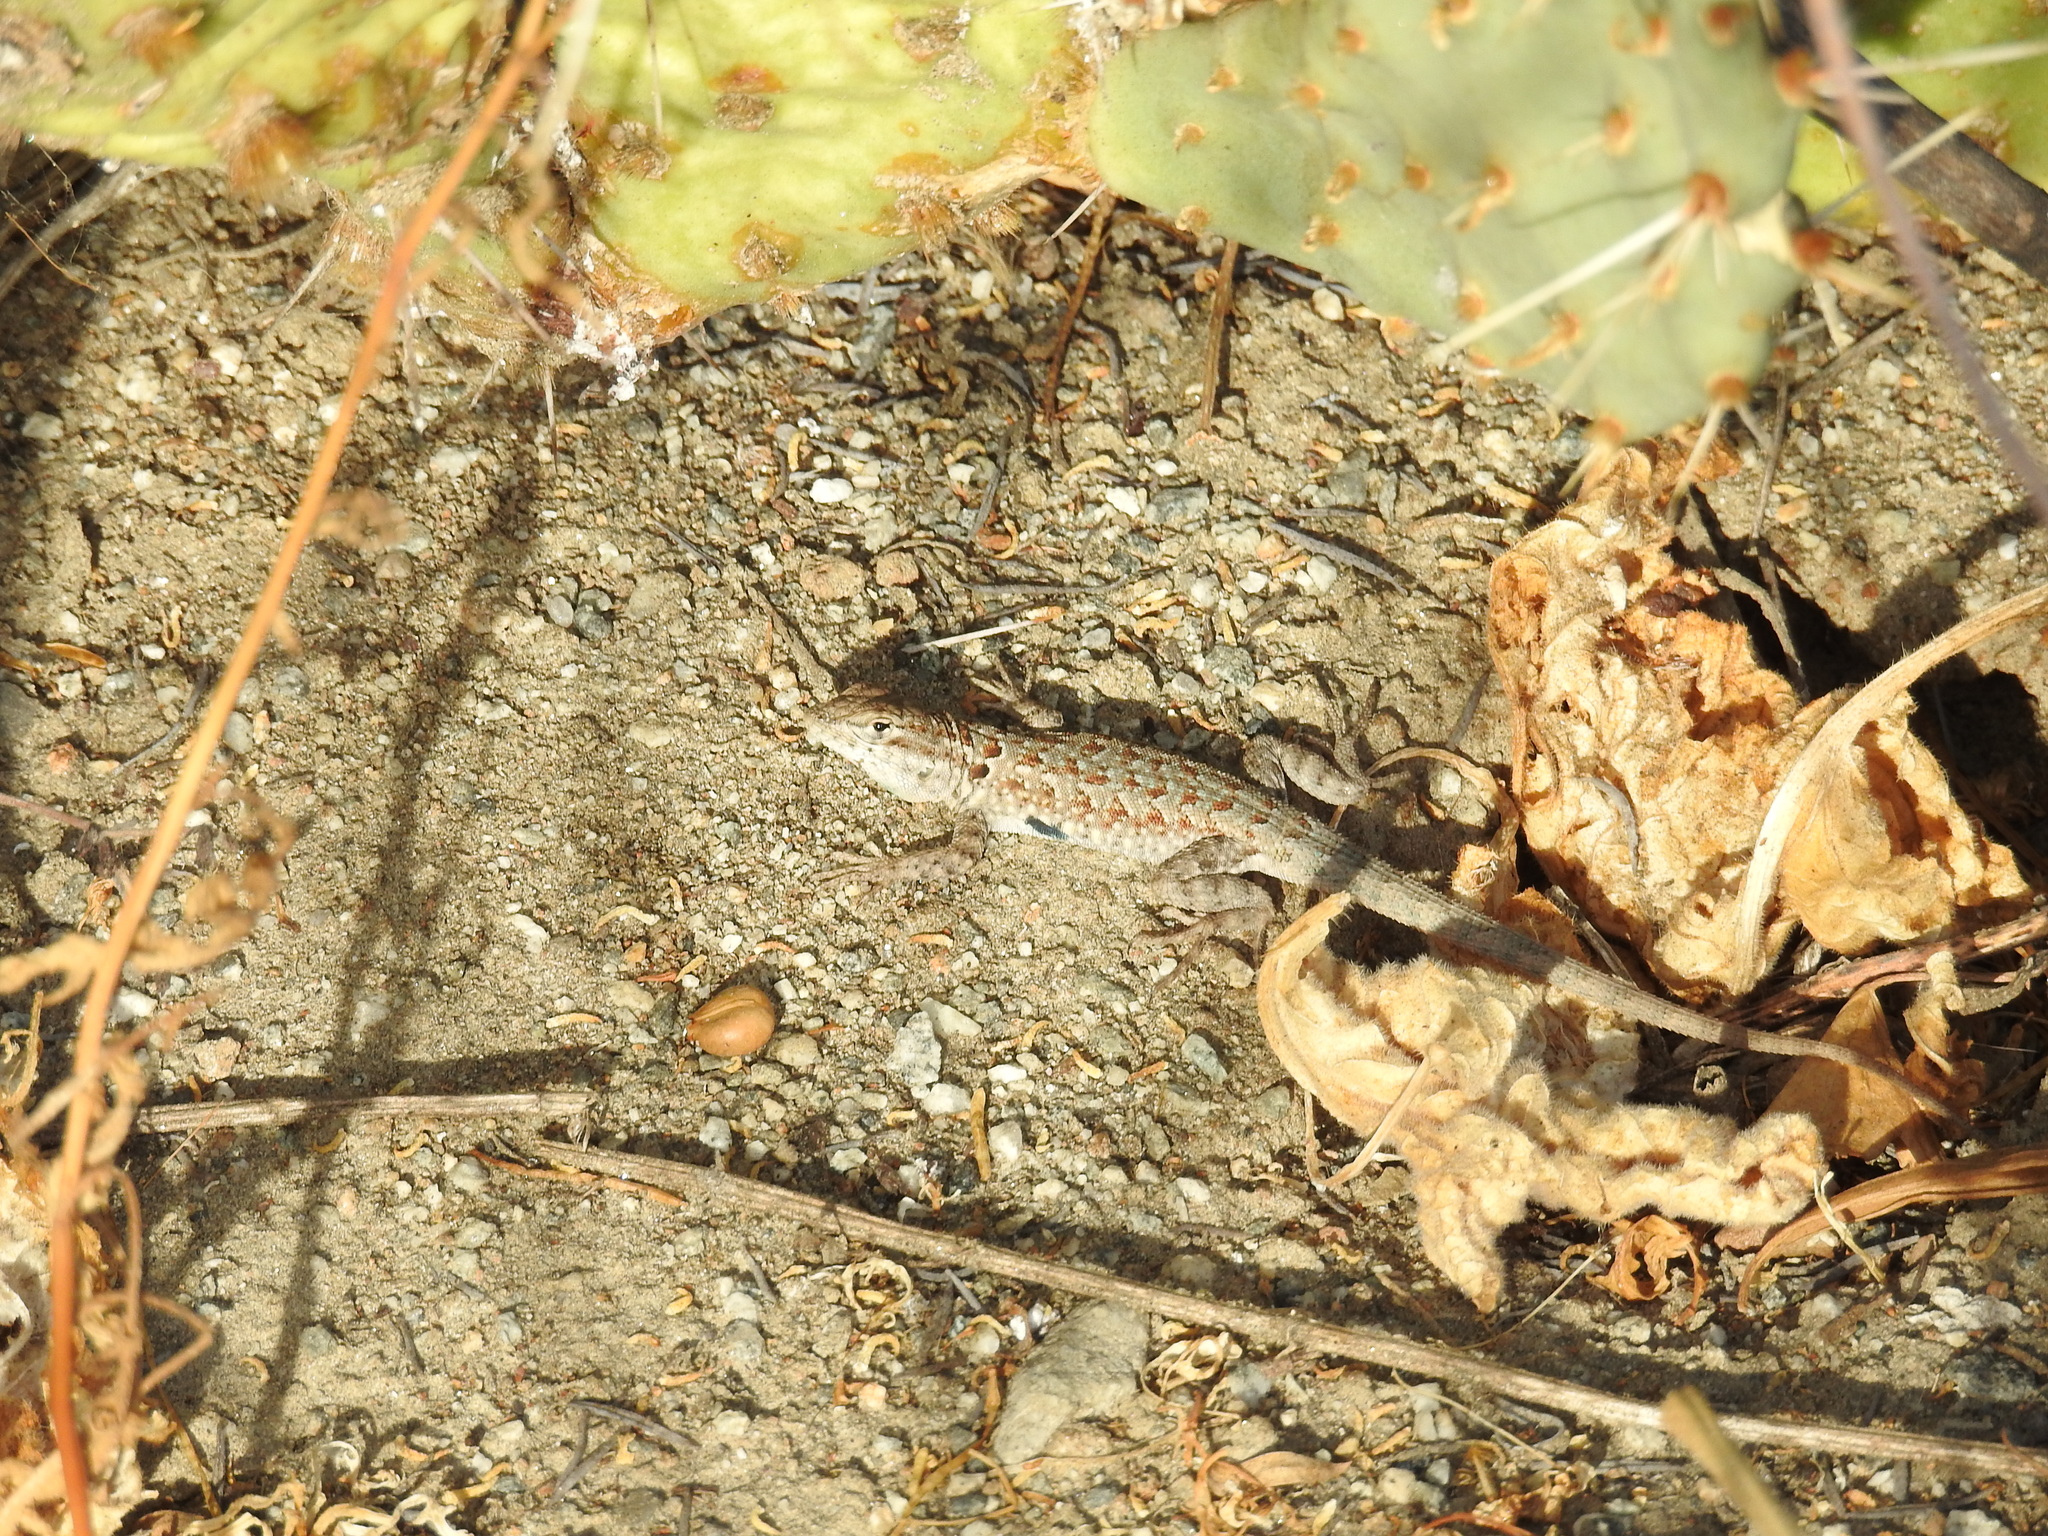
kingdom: Animalia
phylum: Chordata
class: Squamata
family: Phrynosomatidae
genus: Uta
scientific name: Uta stansburiana
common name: Side-blotched lizard
